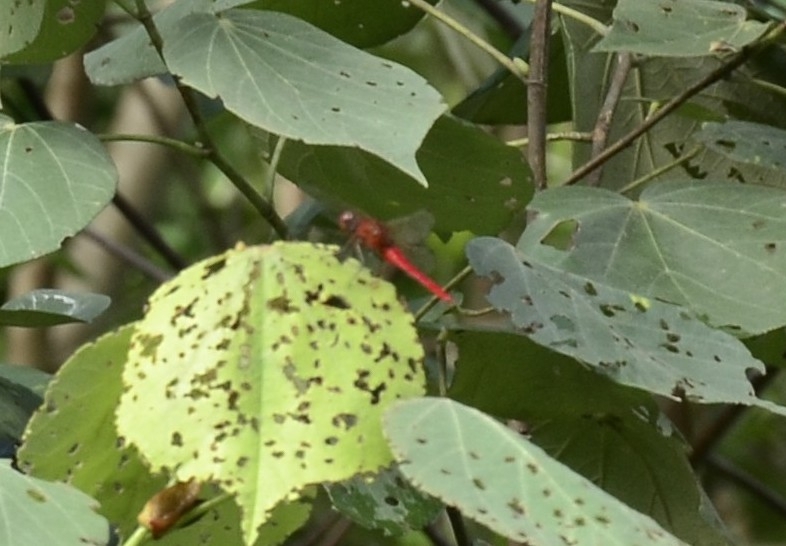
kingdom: Animalia
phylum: Arthropoda
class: Insecta
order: Odonata
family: Libellulidae
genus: Rhodothemis
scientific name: Rhodothemis rufa
